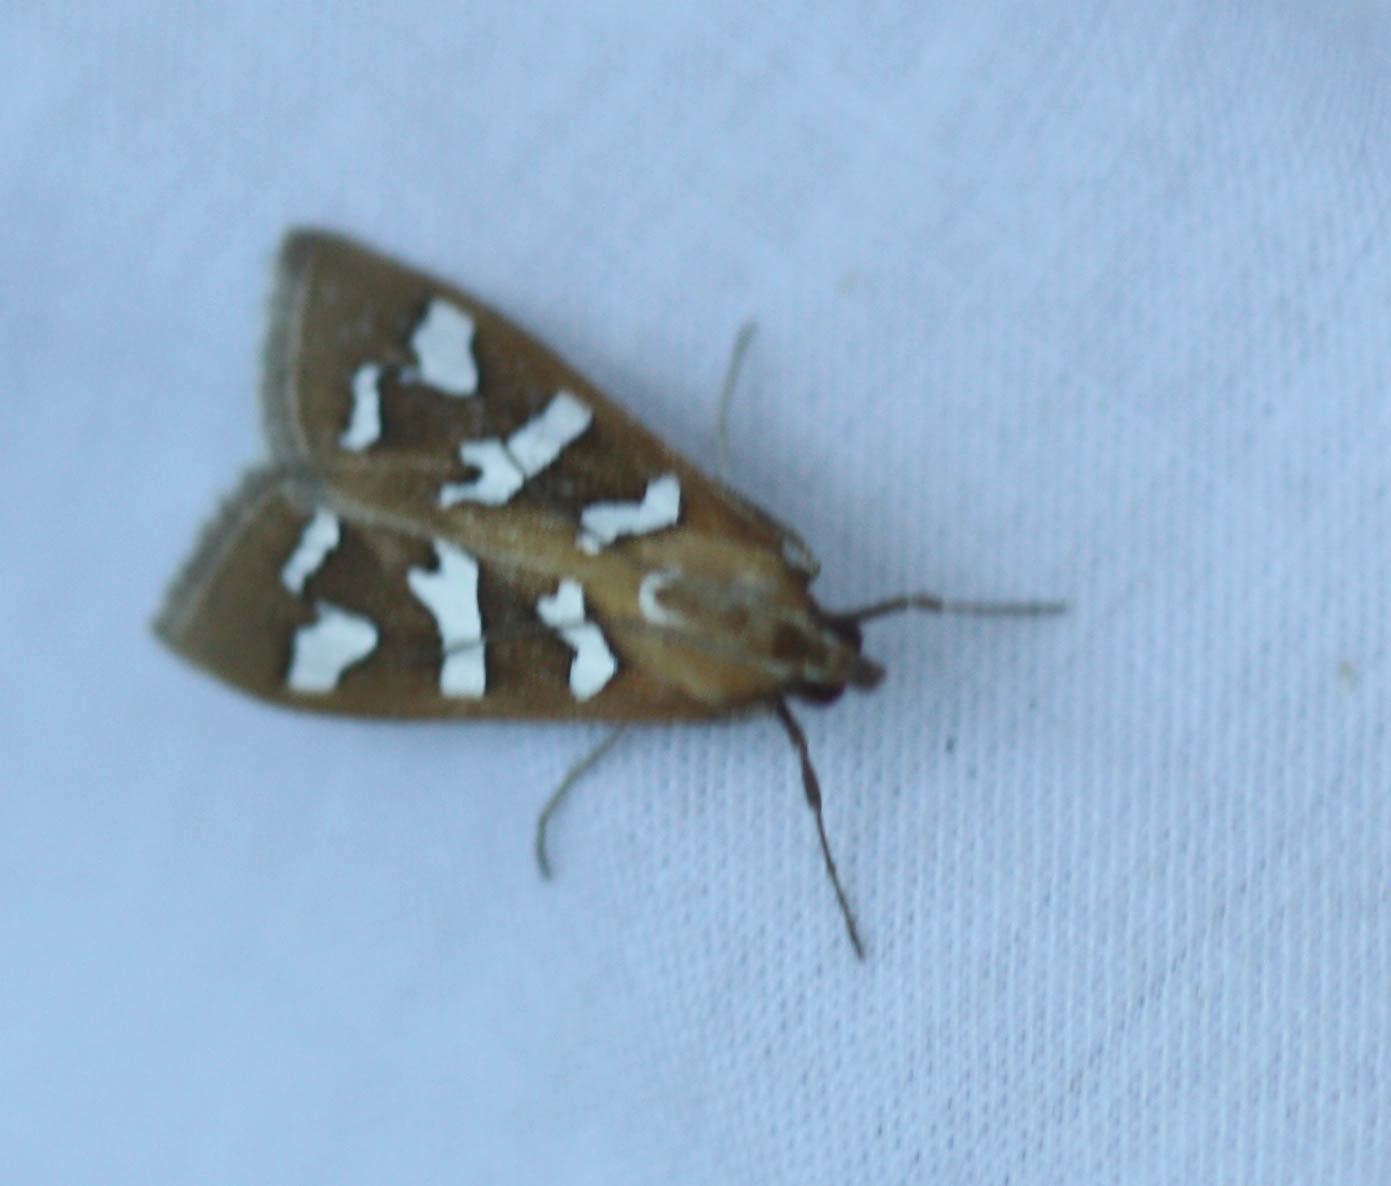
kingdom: Animalia
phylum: Arthropoda
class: Insecta
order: Lepidoptera
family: Crambidae
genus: Diastictis
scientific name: Diastictis fracturalis
